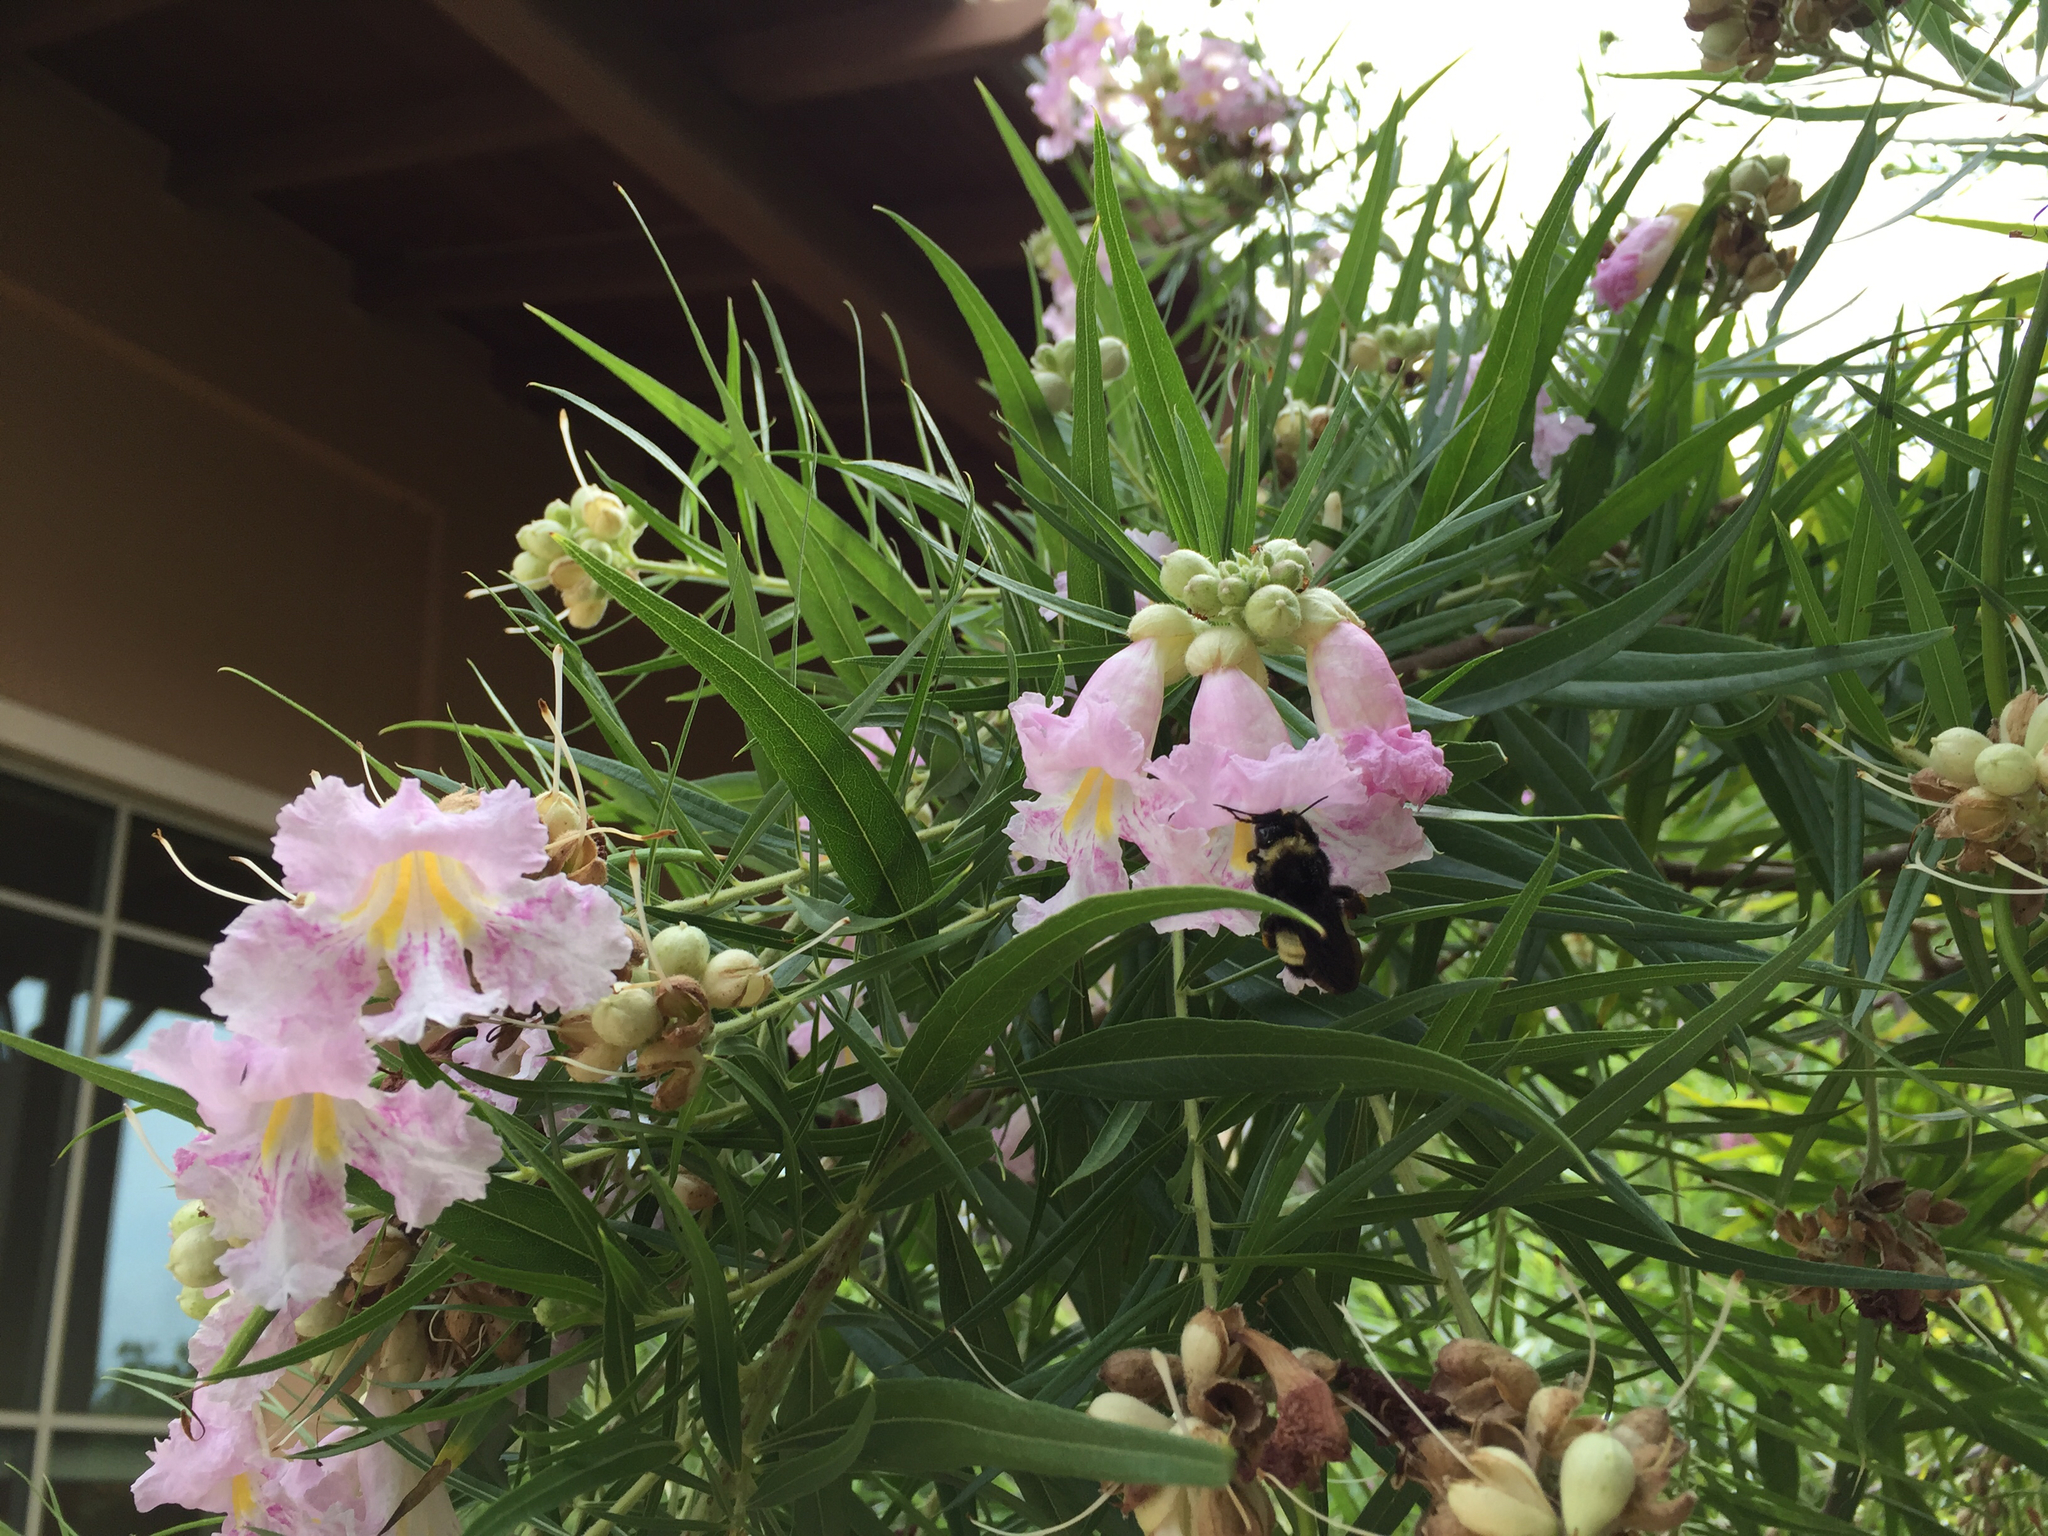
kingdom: Animalia
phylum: Arthropoda
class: Insecta
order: Hymenoptera
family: Apidae
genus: Bombus
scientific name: Bombus pensylvanicus
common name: Bumble bee
